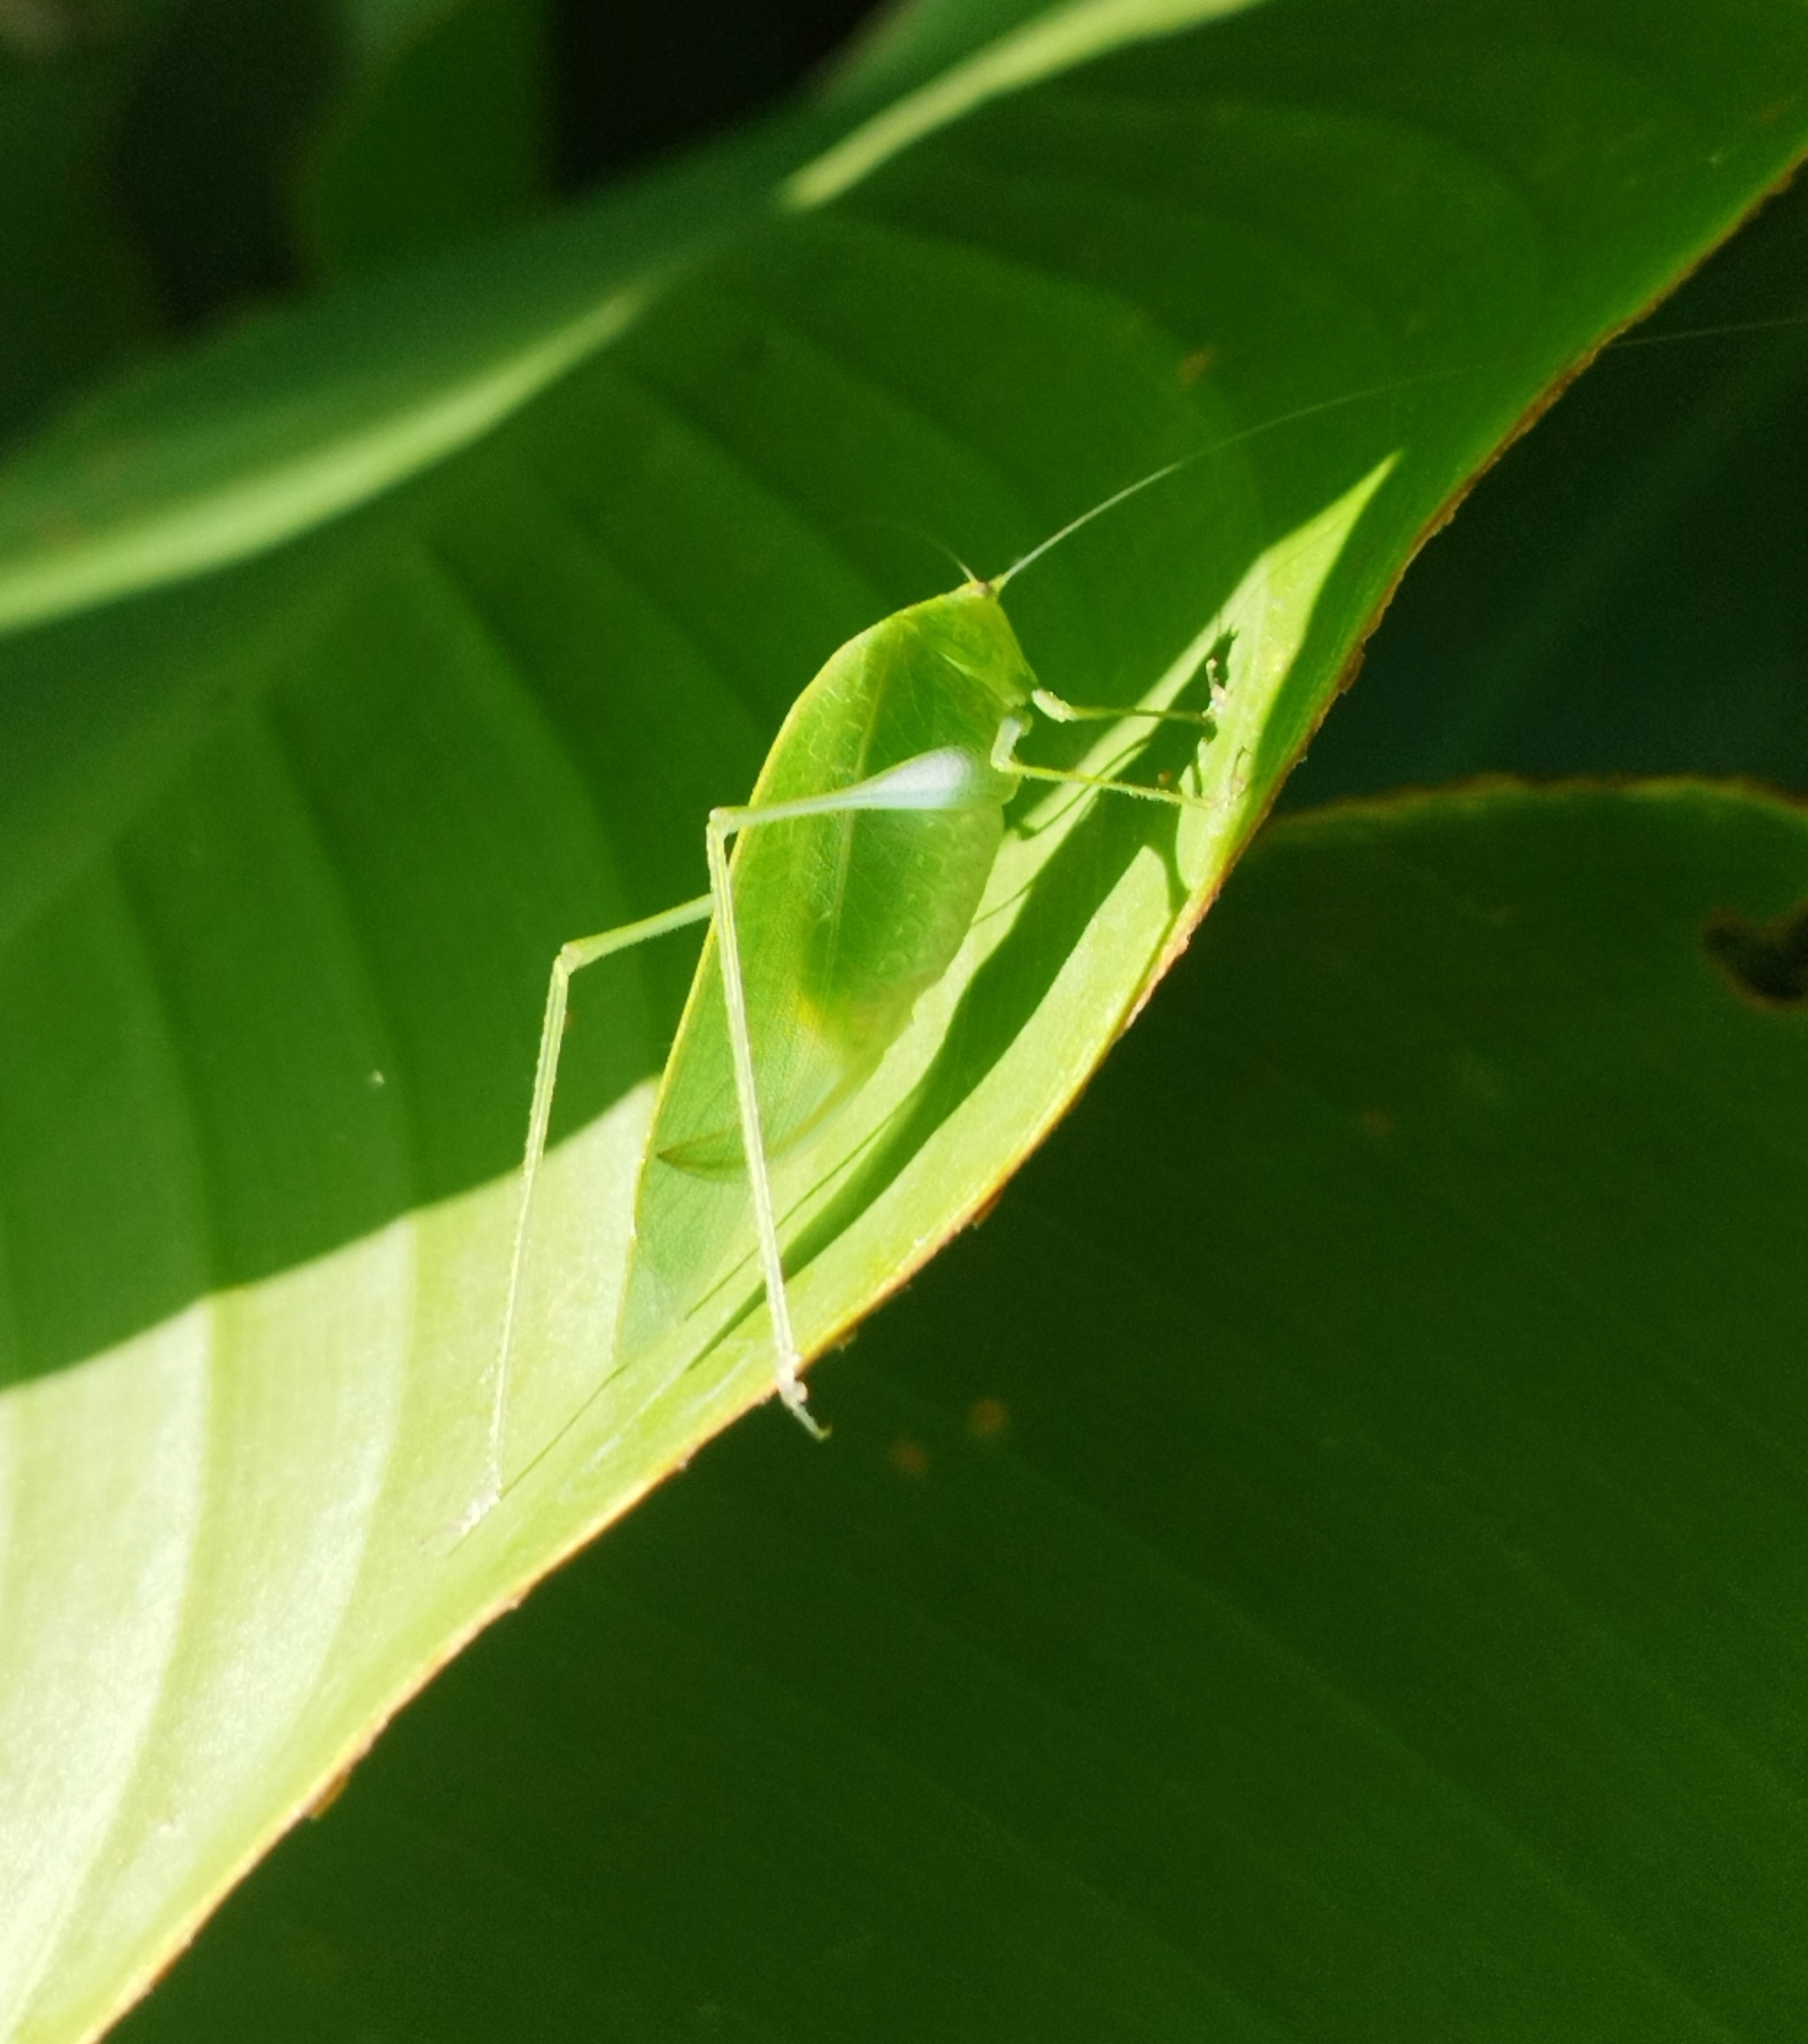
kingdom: Animalia
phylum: Arthropoda
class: Insecta
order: Orthoptera
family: Tettigoniidae
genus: Grammadera
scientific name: Grammadera clara
